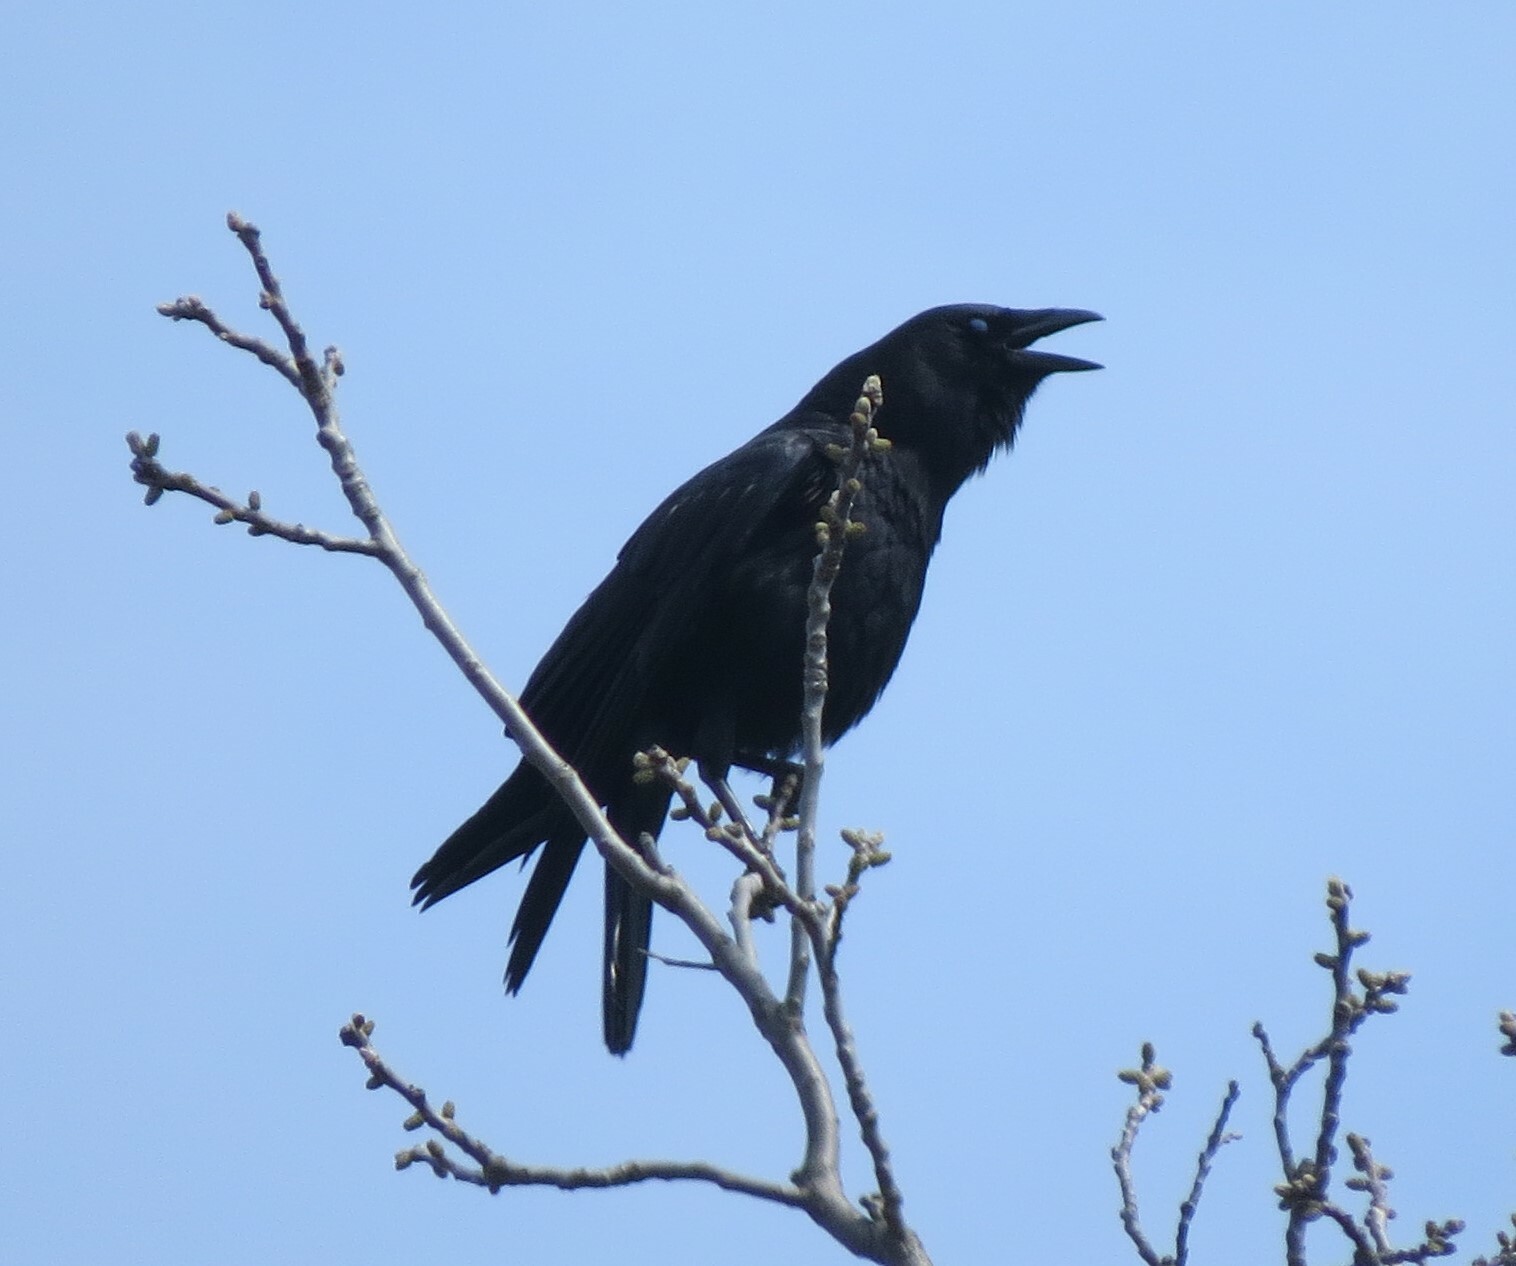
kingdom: Animalia
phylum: Chordata
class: Aves
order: Passeriformes
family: Corvidae
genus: Corvus
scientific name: Corvus brachyrhynchos
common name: American crow
